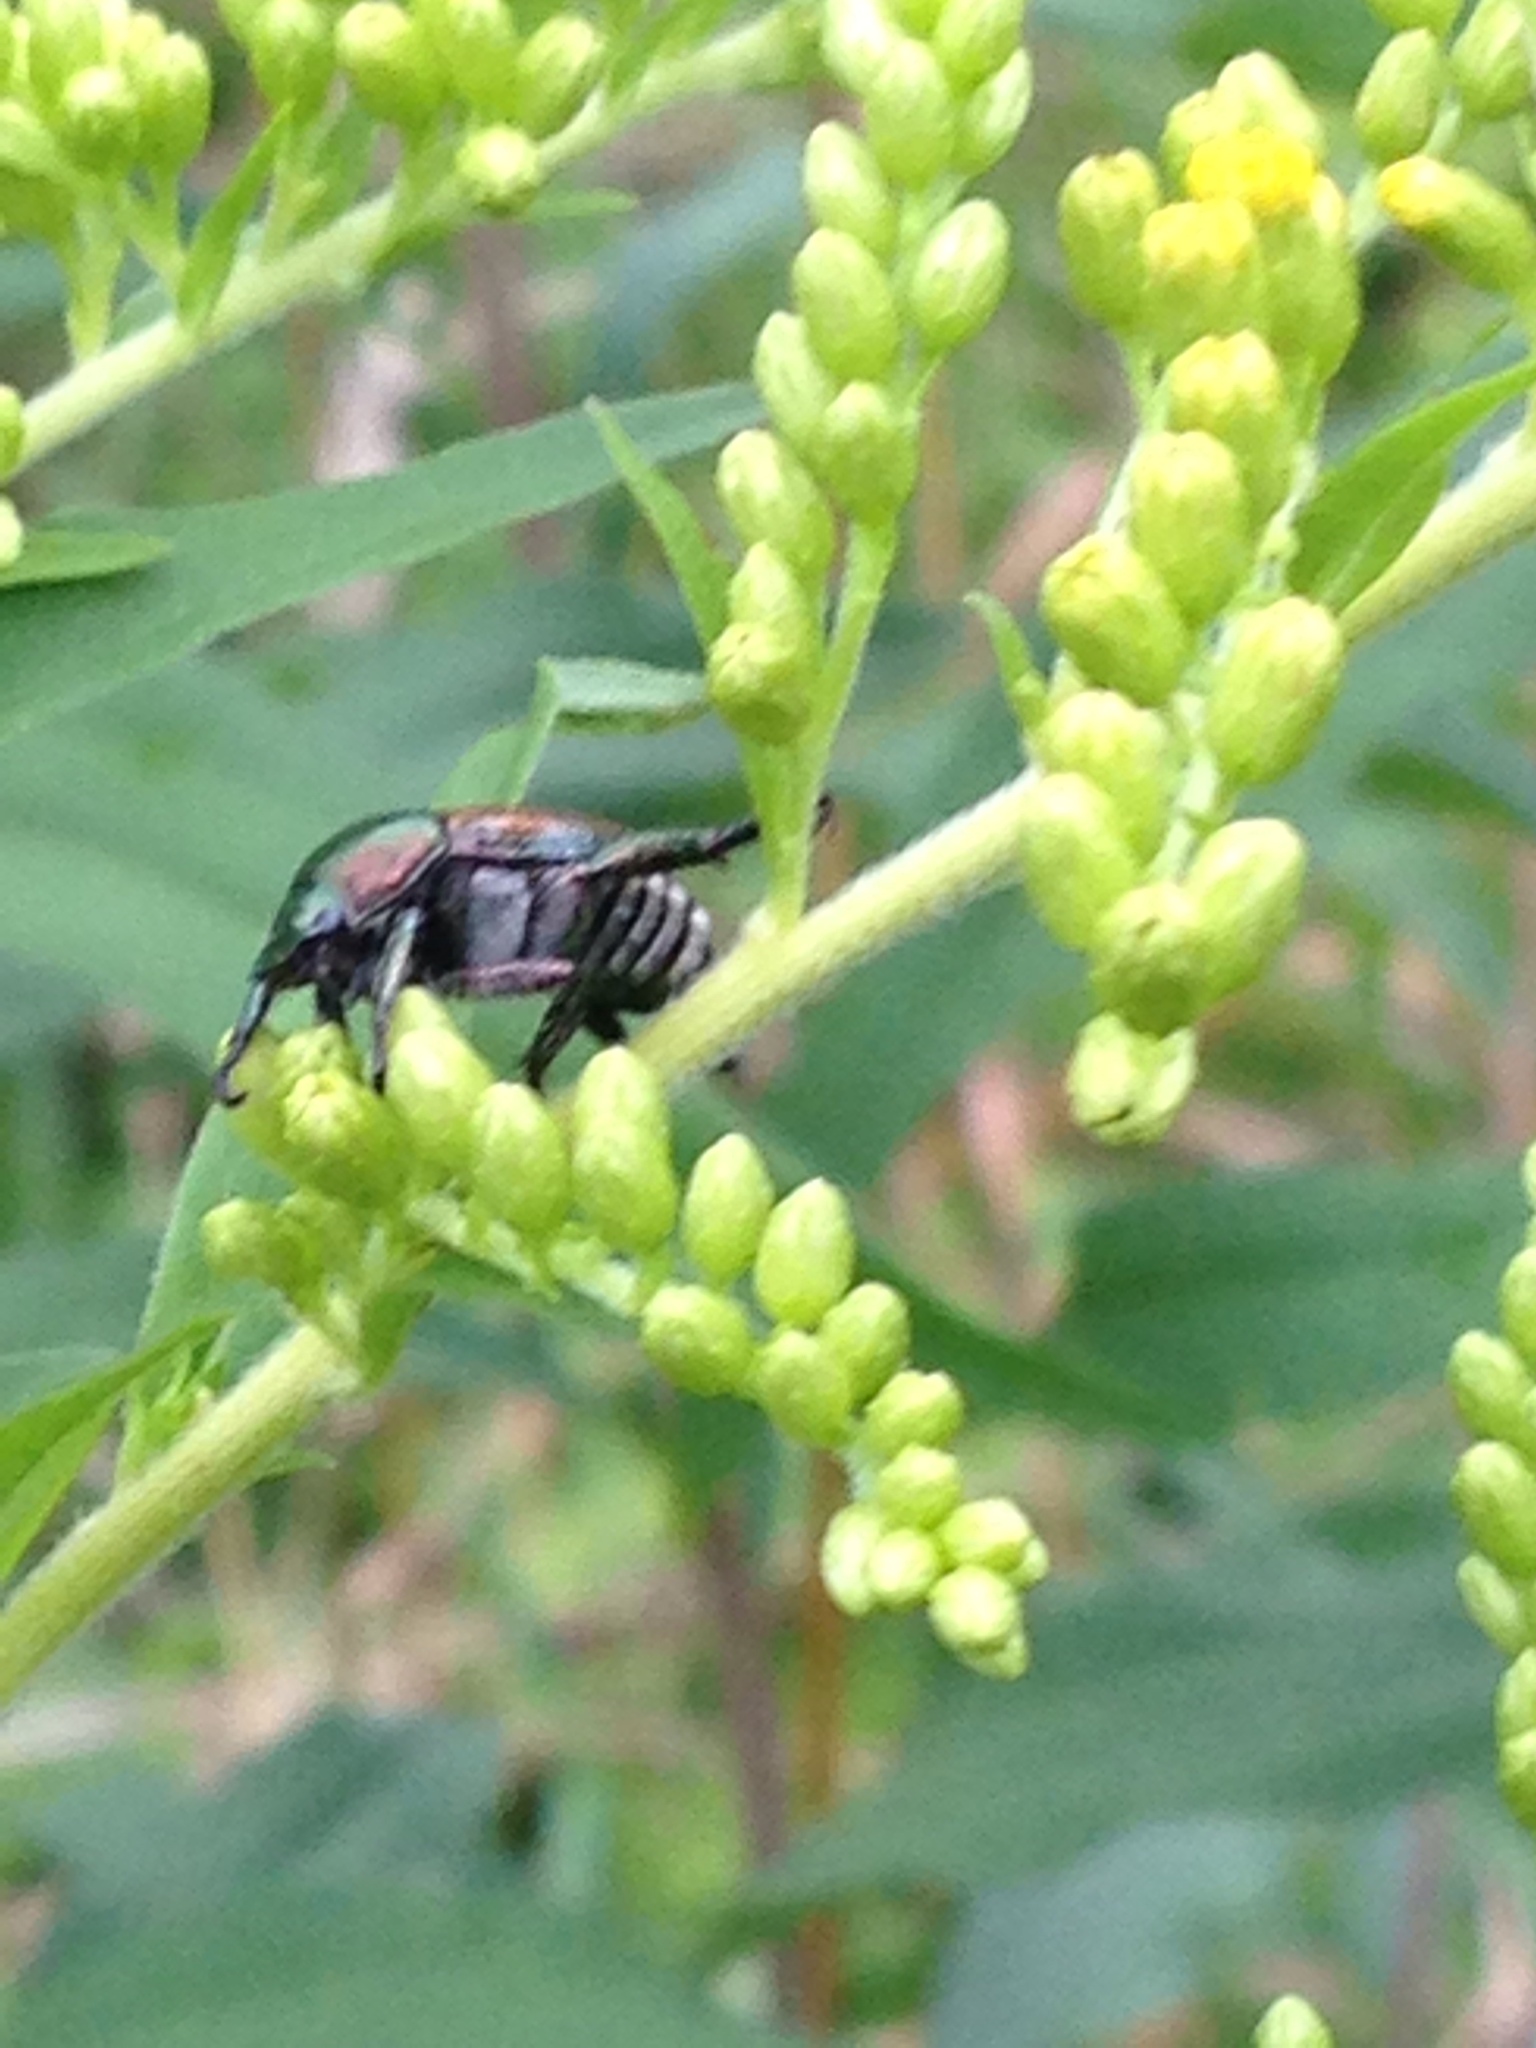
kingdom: Animalia
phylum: Arthropoda
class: Insecta
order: Coleoptera
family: Scarabaeidae
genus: Popillia
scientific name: Popillia japonica
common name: Japanese beetle
